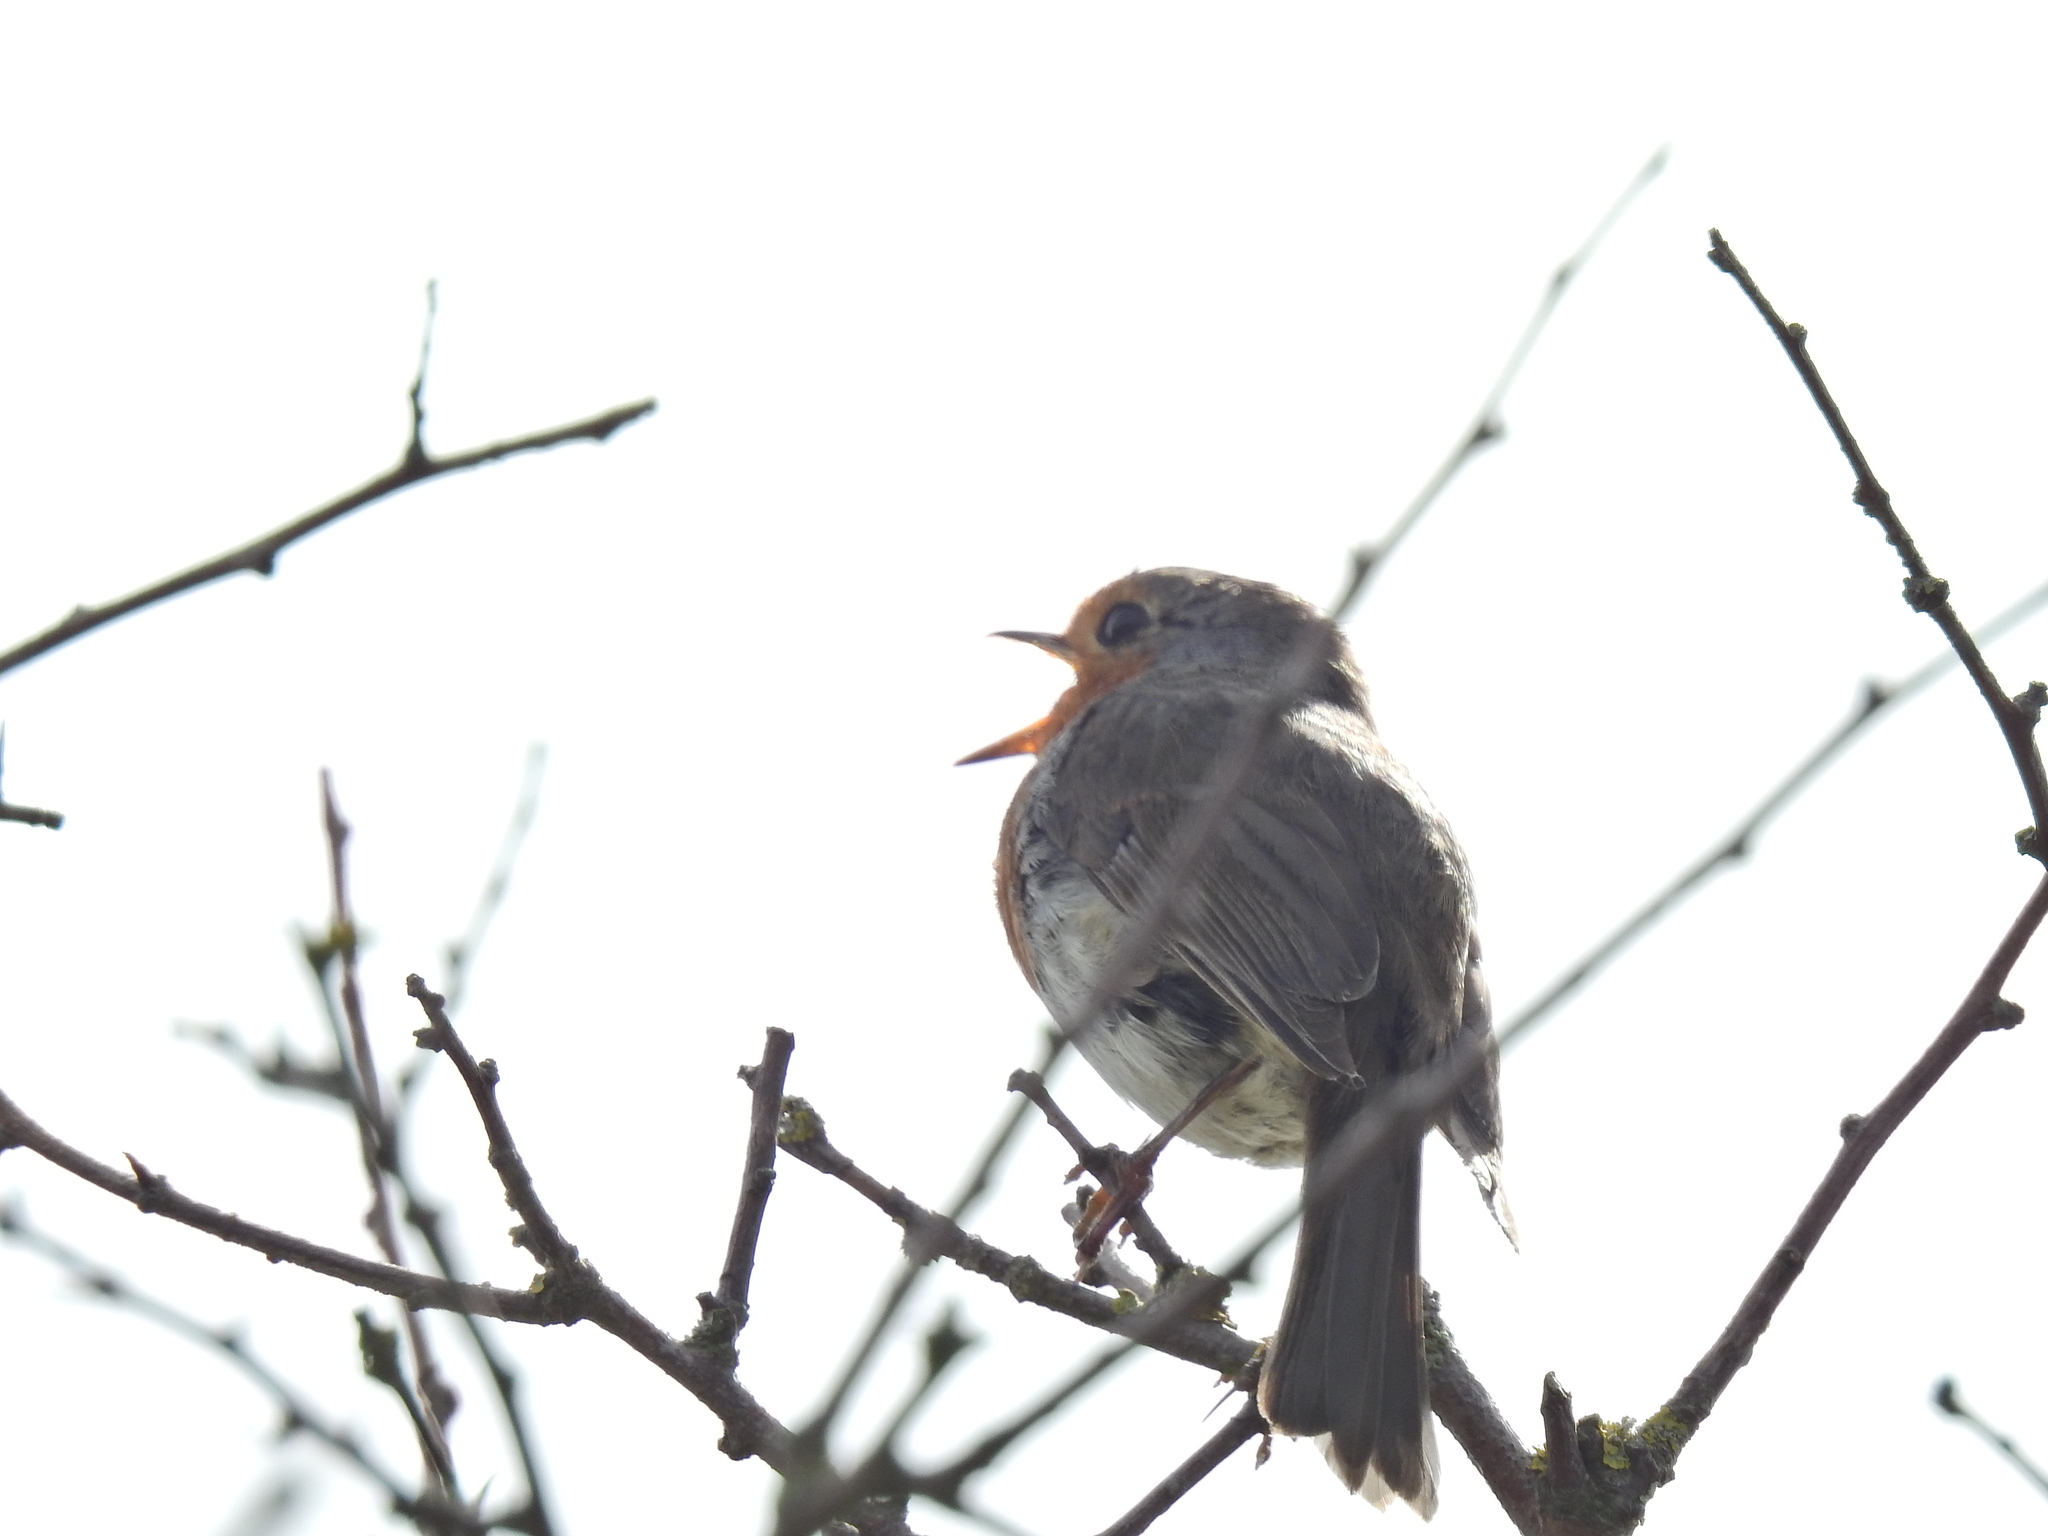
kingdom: Animalia
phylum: Chordata
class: Aves
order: Passeriformes
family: Muscicapidae
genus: Erithacus
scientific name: Erithacus rubecula
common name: European robin
